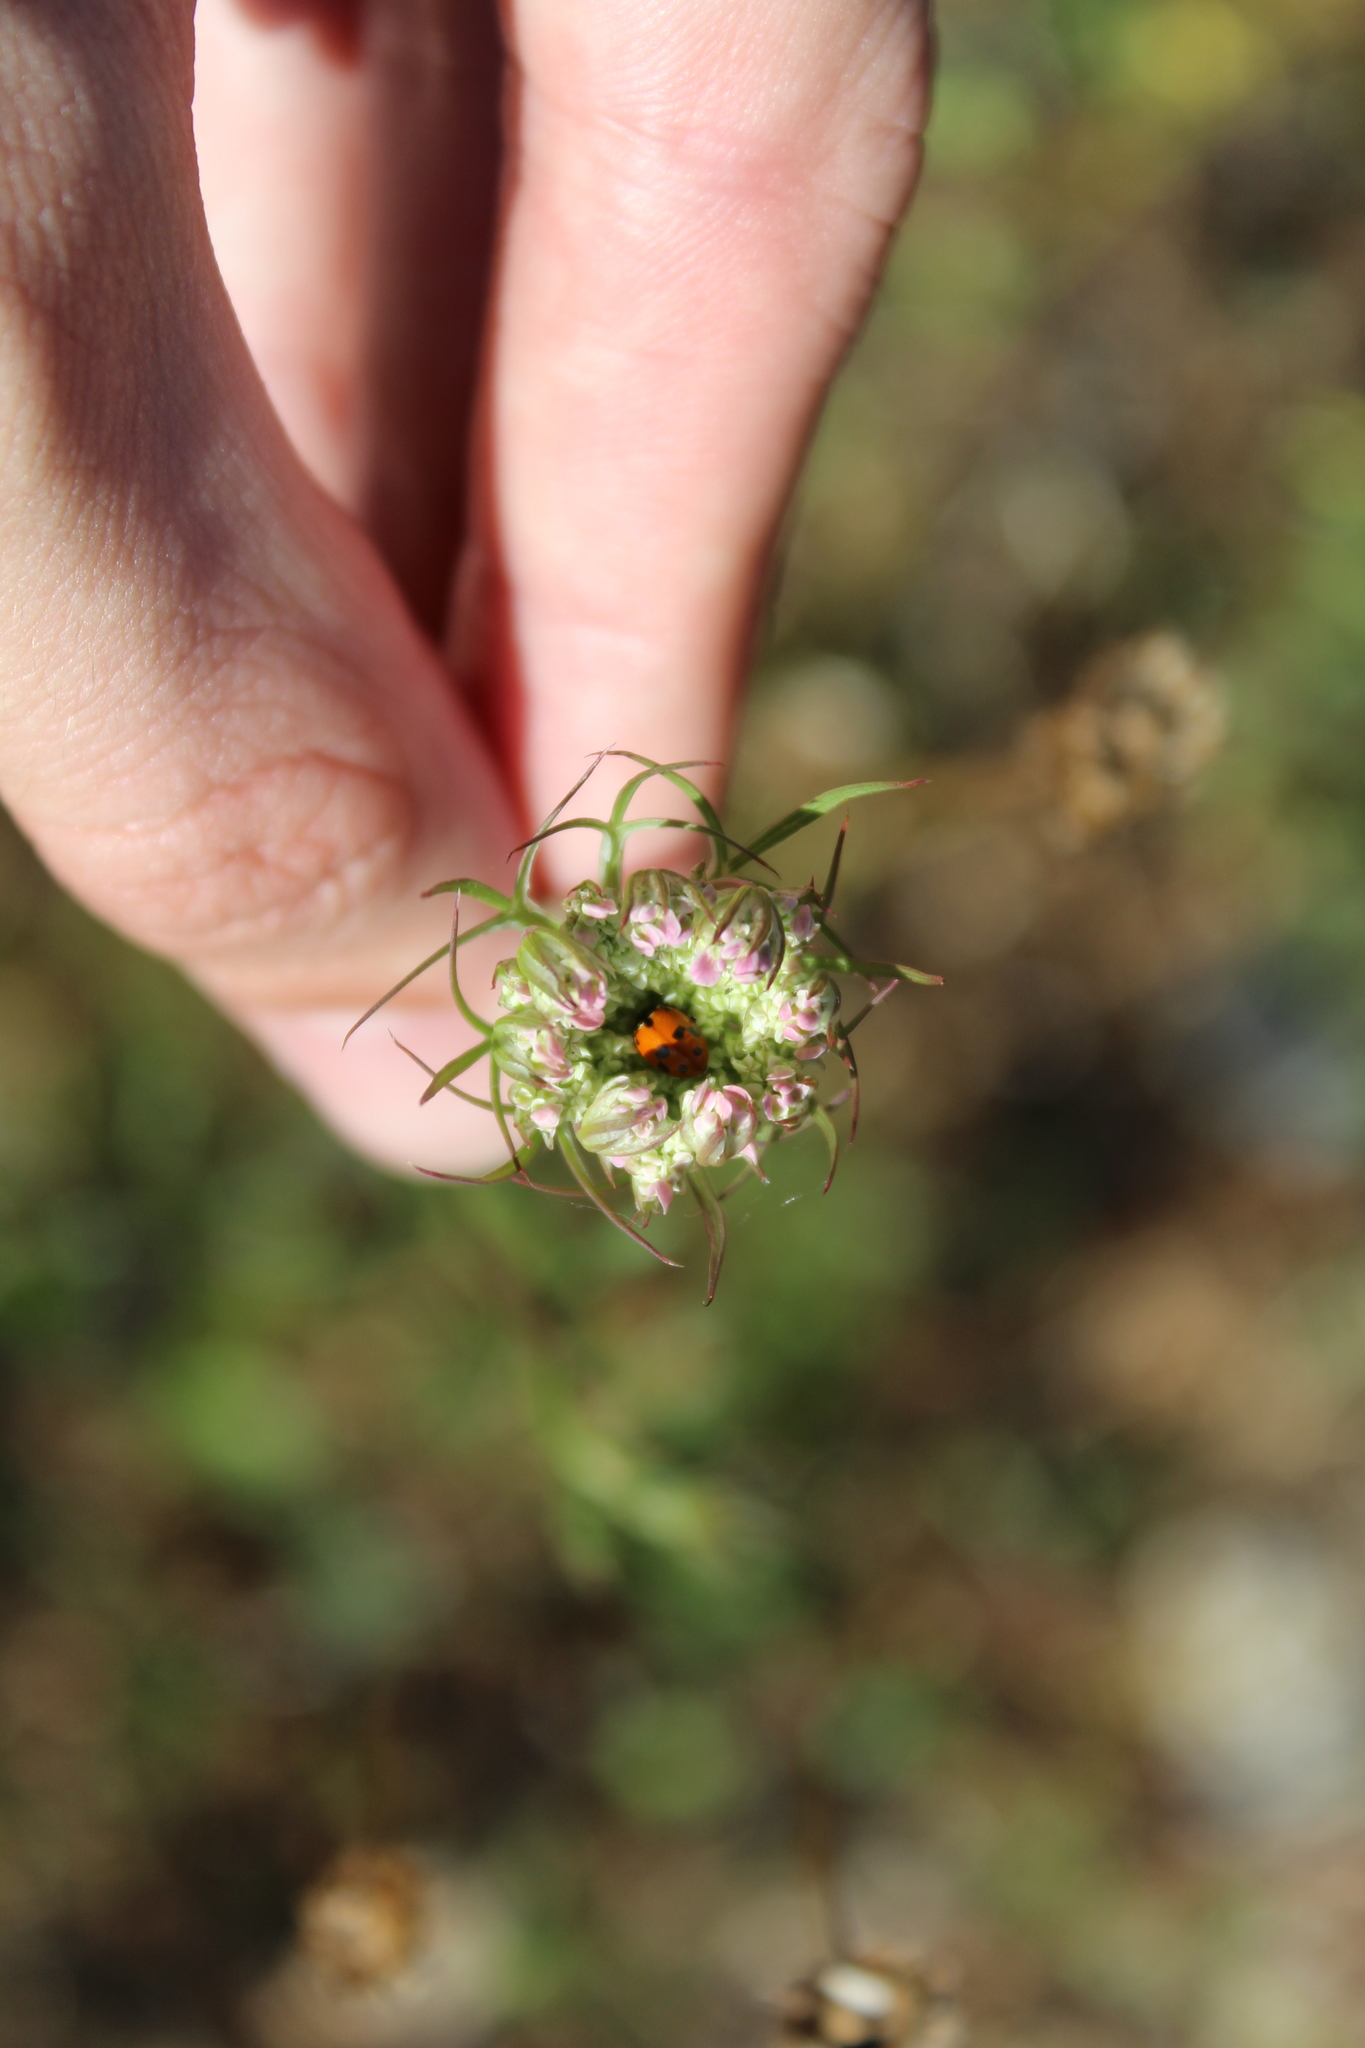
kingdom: Animalia
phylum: Arthropoda
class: Insecta
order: Coleoptera
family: Coccinellidae
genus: Hippodamia
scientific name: Hippodamia variegata
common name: Ladybird beetle
